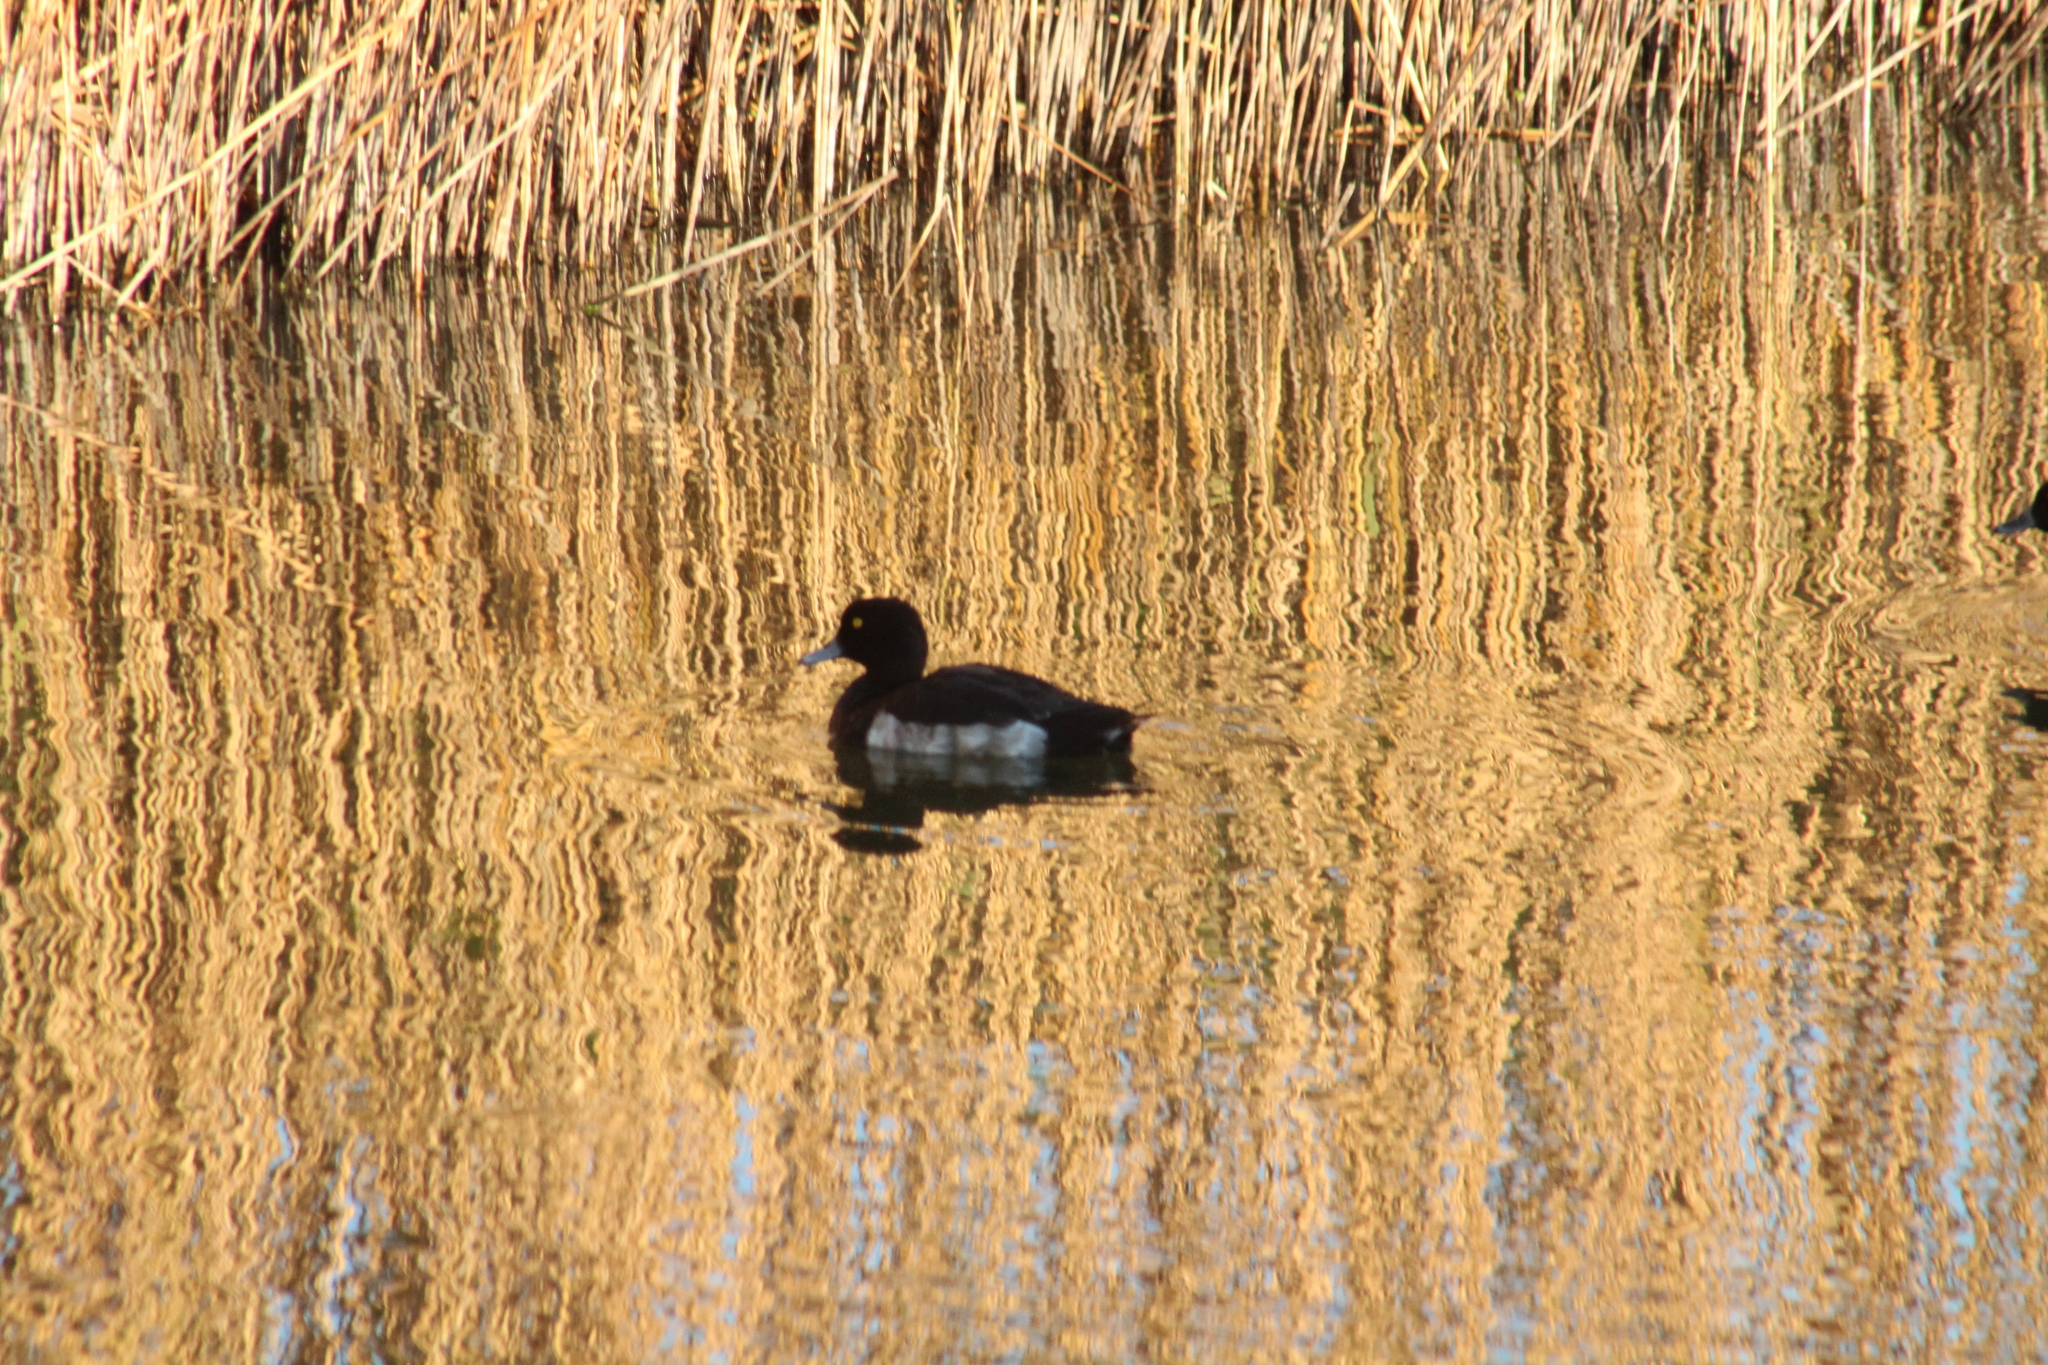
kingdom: Animalia
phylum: Chordata
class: Aves
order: Anseriformes
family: Anatidae
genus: Aythya
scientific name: Aythya fuligula
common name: Tufted duck
